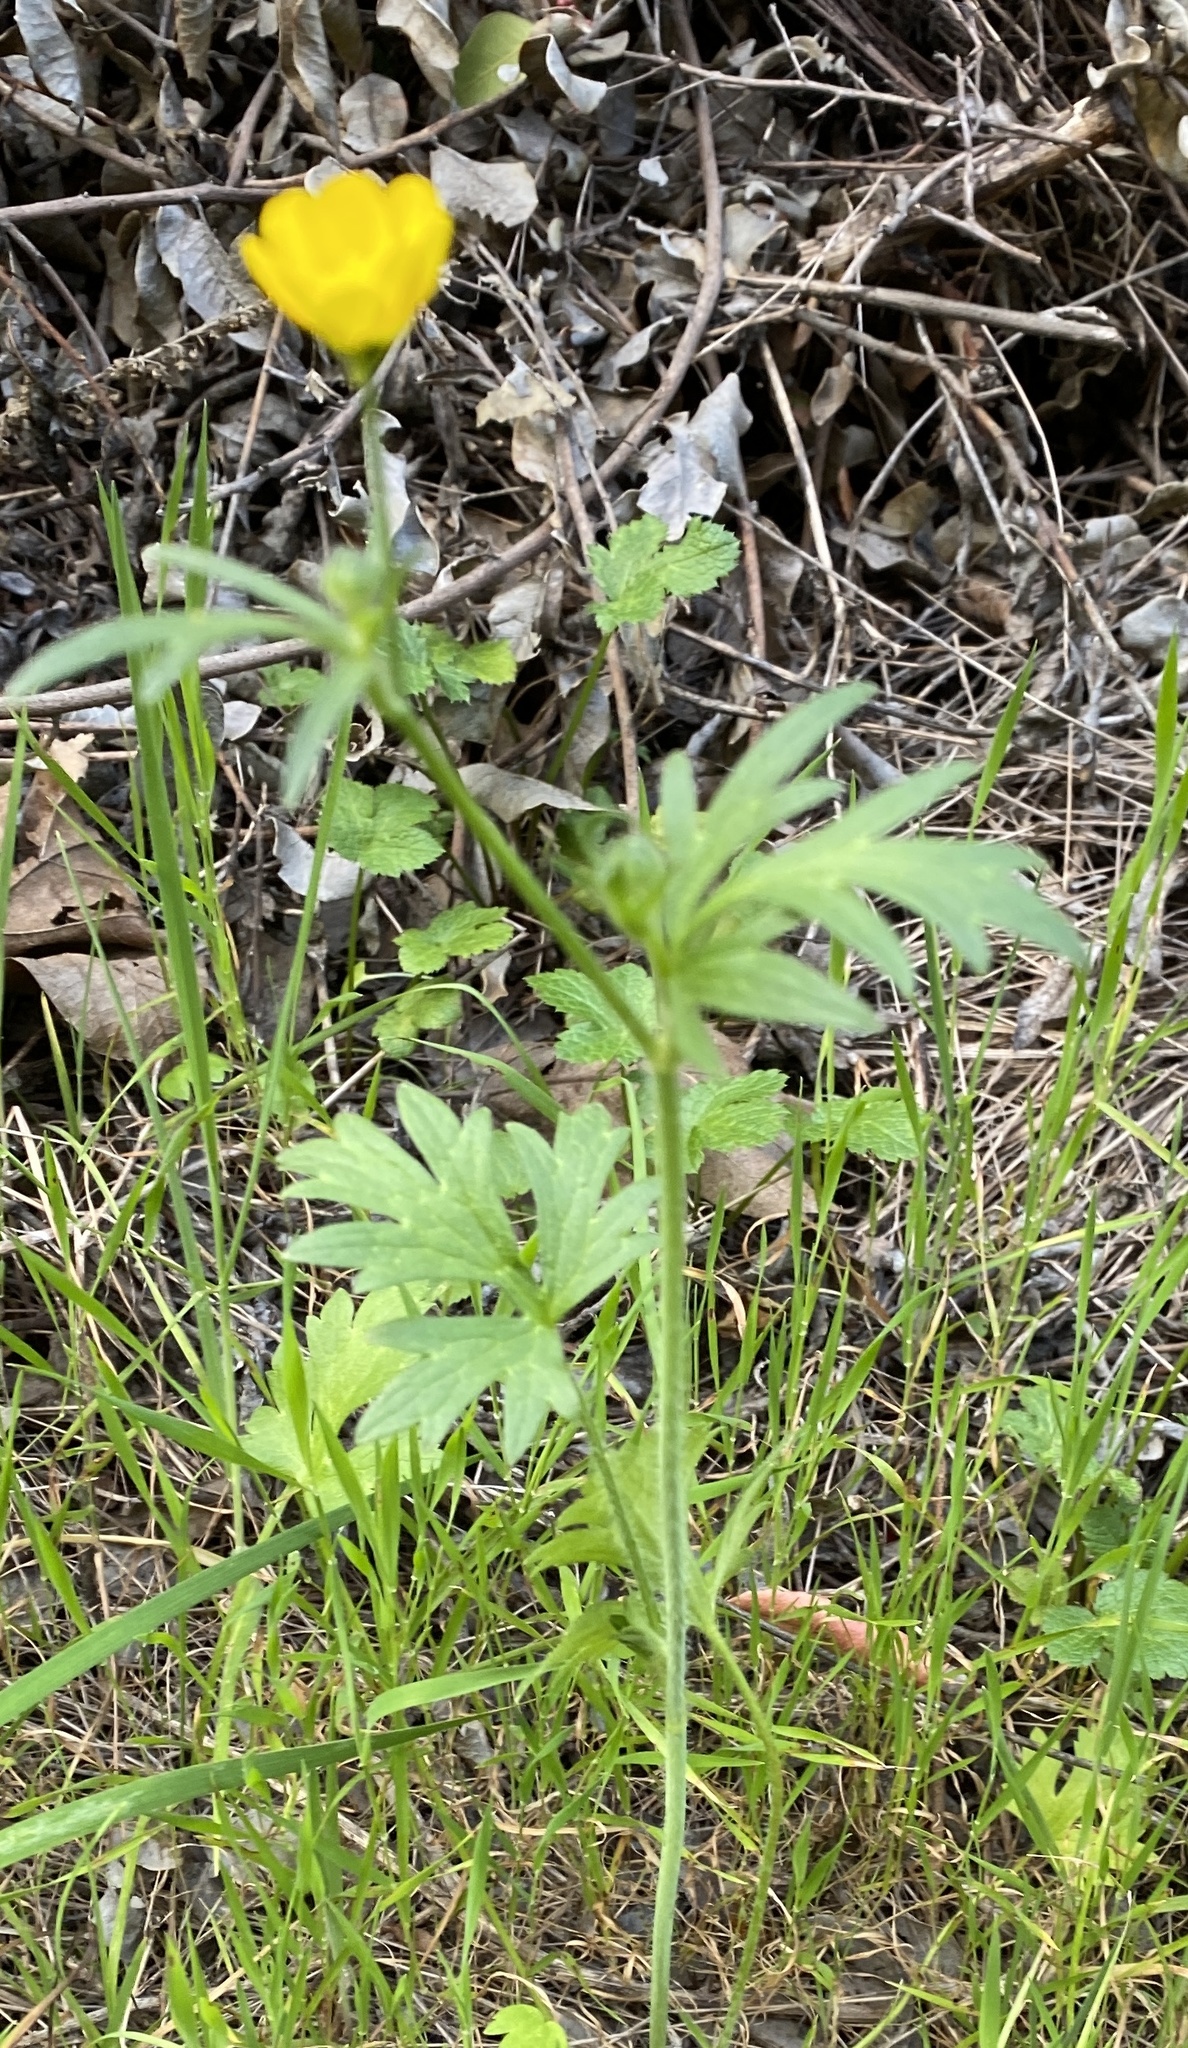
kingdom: Plantae
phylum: Tracheophyta
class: Magnoliopsida
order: Ranunculales
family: Ranunculaceae
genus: Ranunculus
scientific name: Ranunculus californicus
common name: California buttercup
